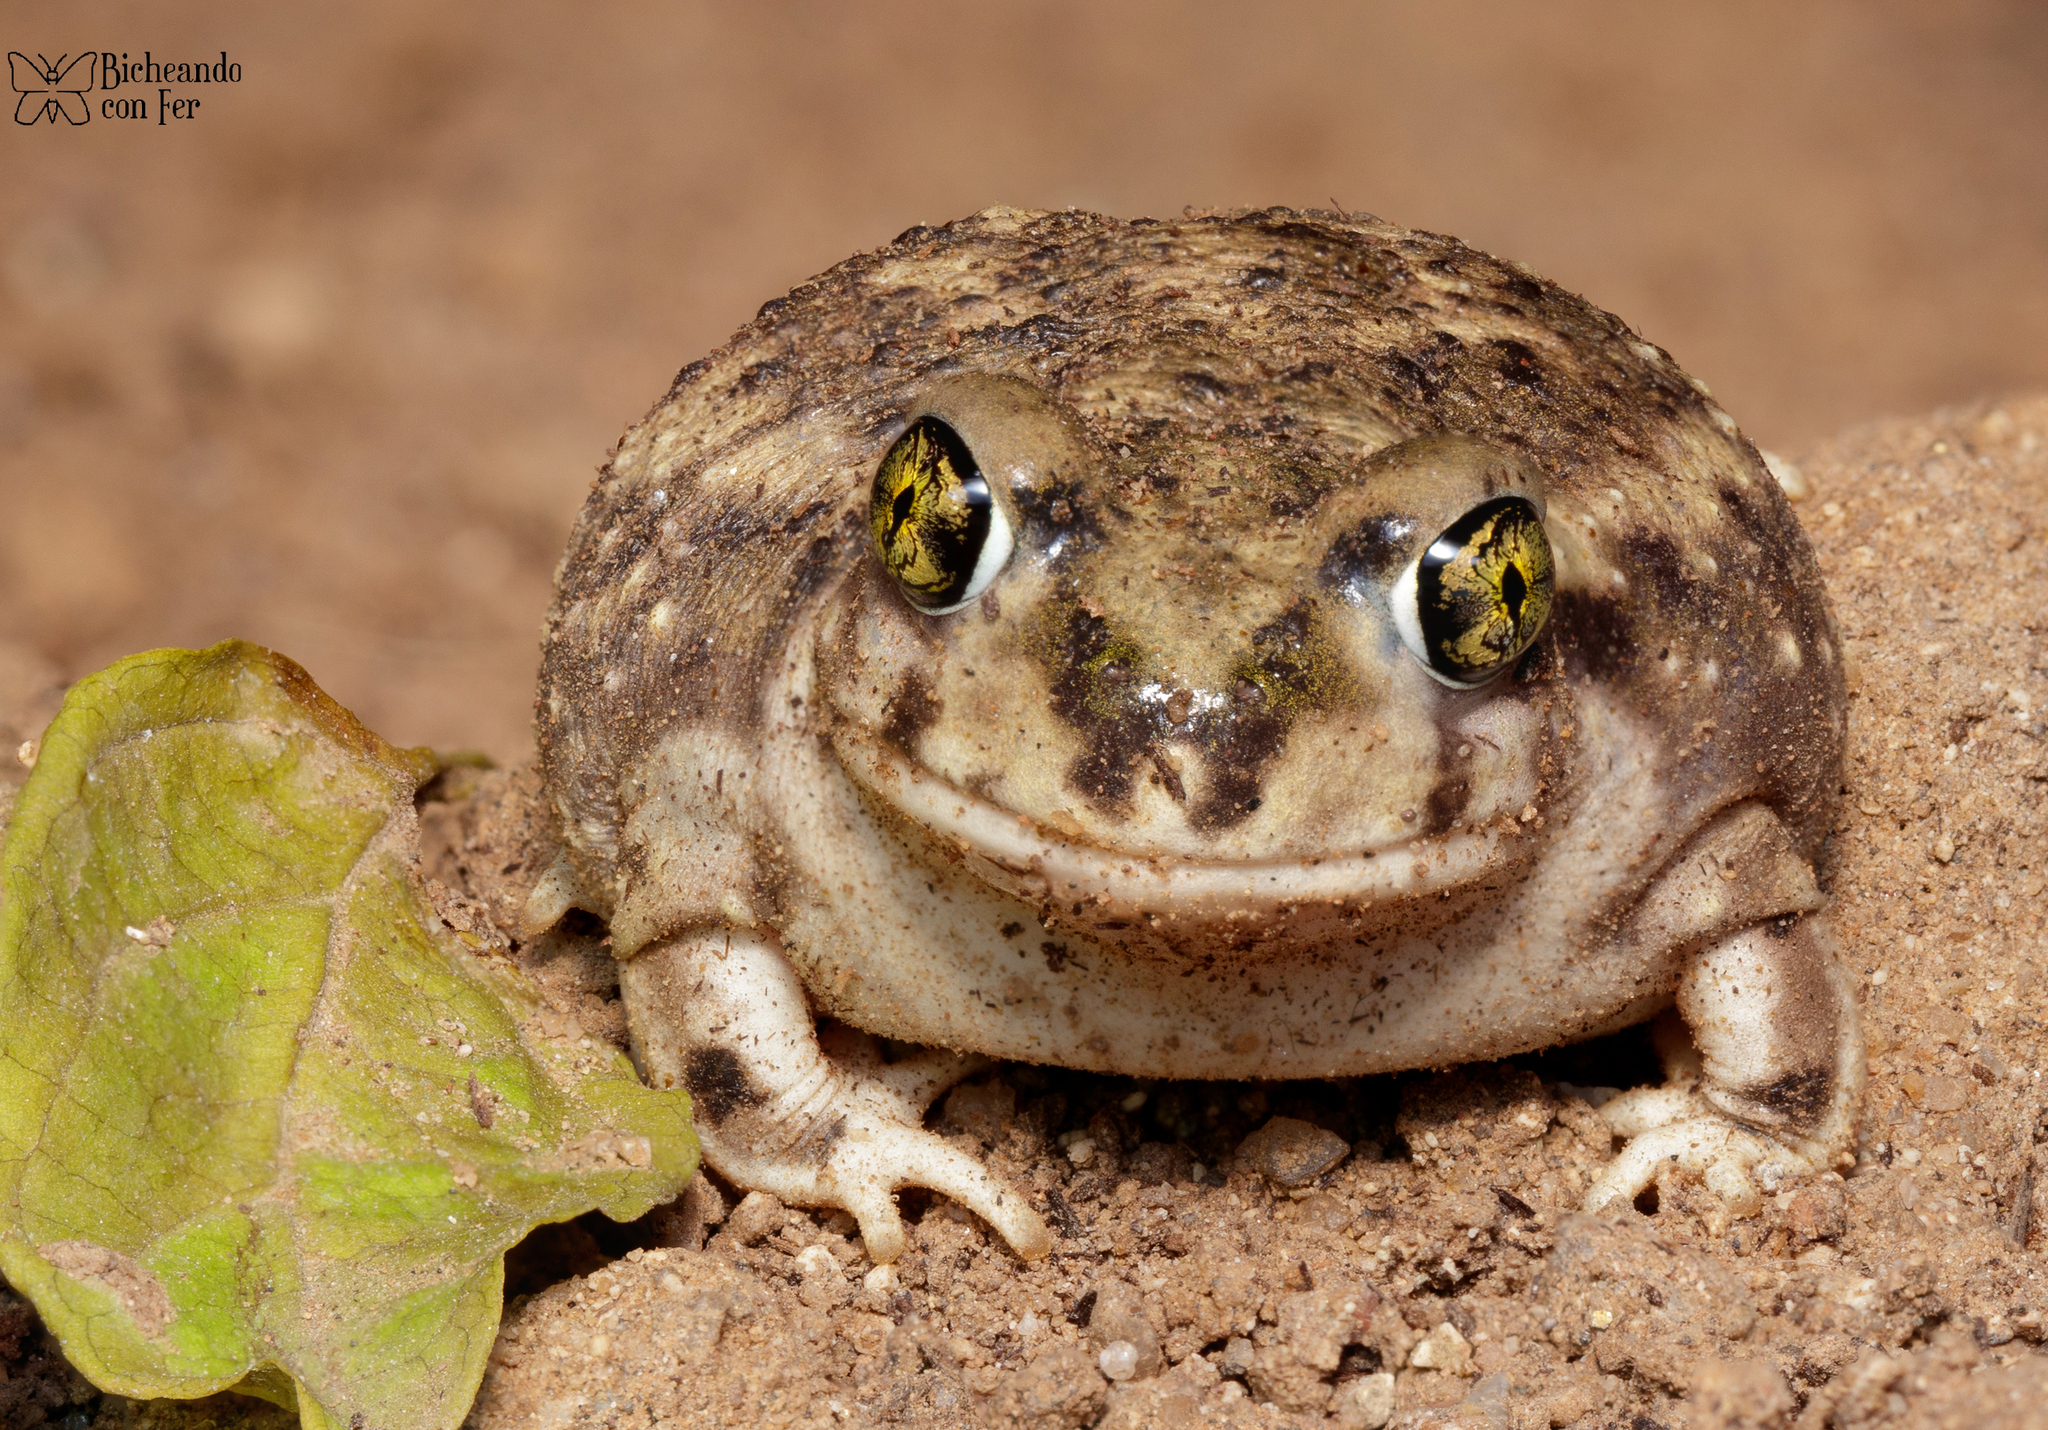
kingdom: Animalia
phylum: Chordata
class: Amphibia
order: Anura
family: Scaphiopodidae
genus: Scaphiopus
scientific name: Scaphiopus couchii
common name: Couch's spadefoot toad
